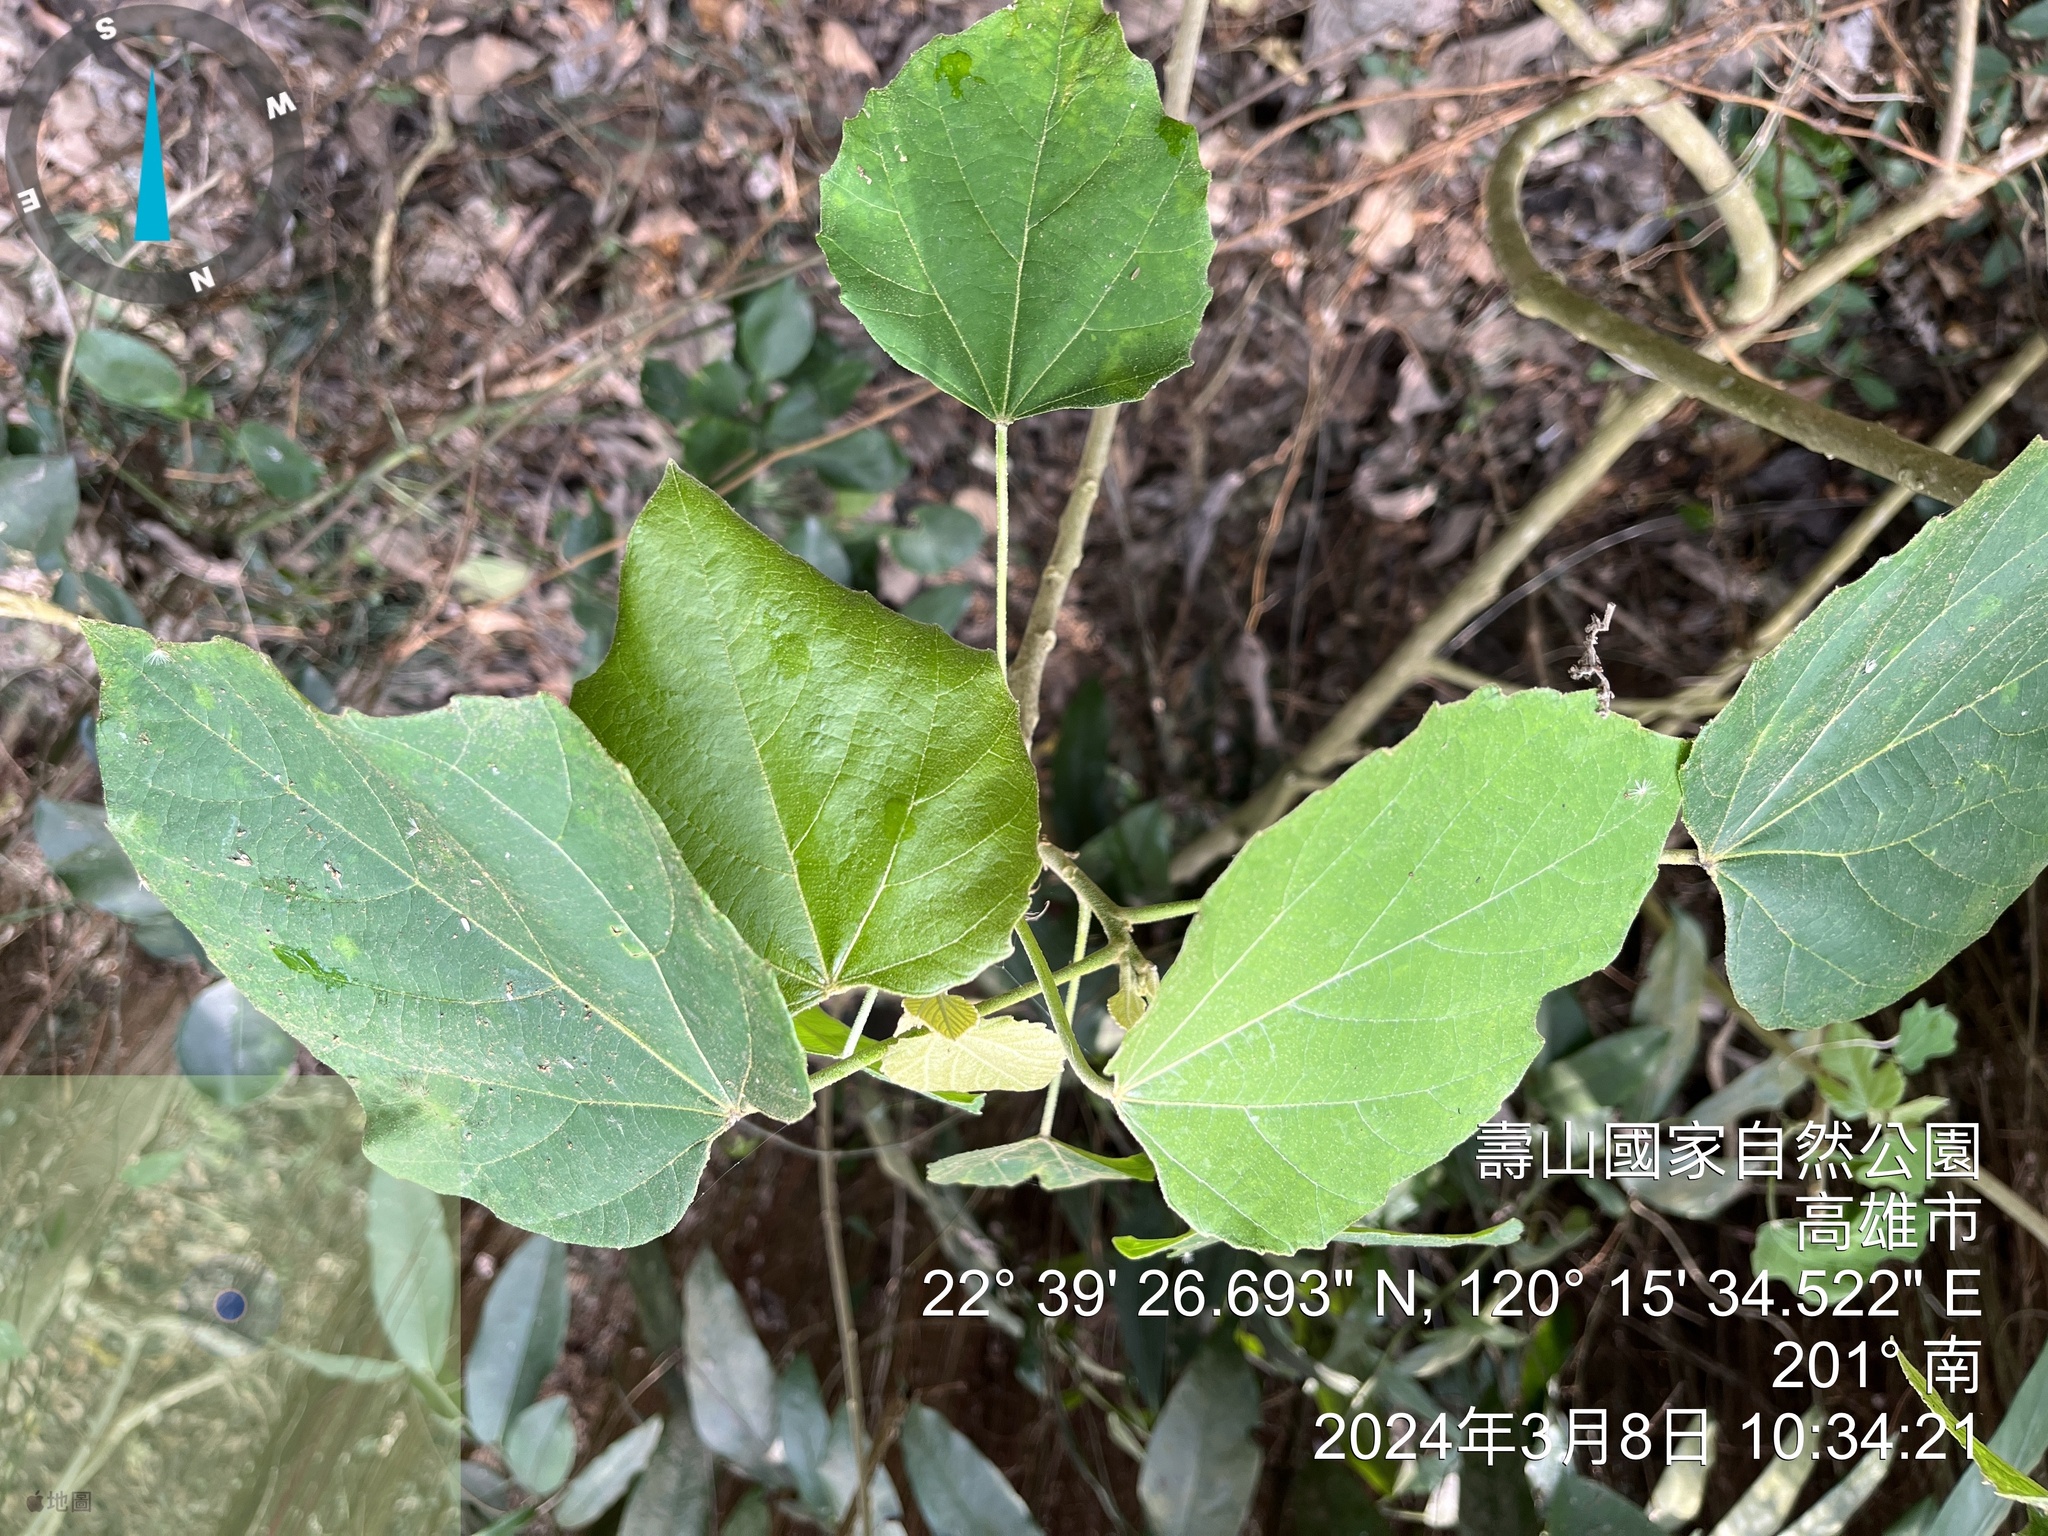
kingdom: Plantae
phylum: Tracheophyta
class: Magnoliopsida
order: Malpighiales
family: Euphorbiaceae
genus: Melanolepis
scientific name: Melanolepis multiglandulosa
